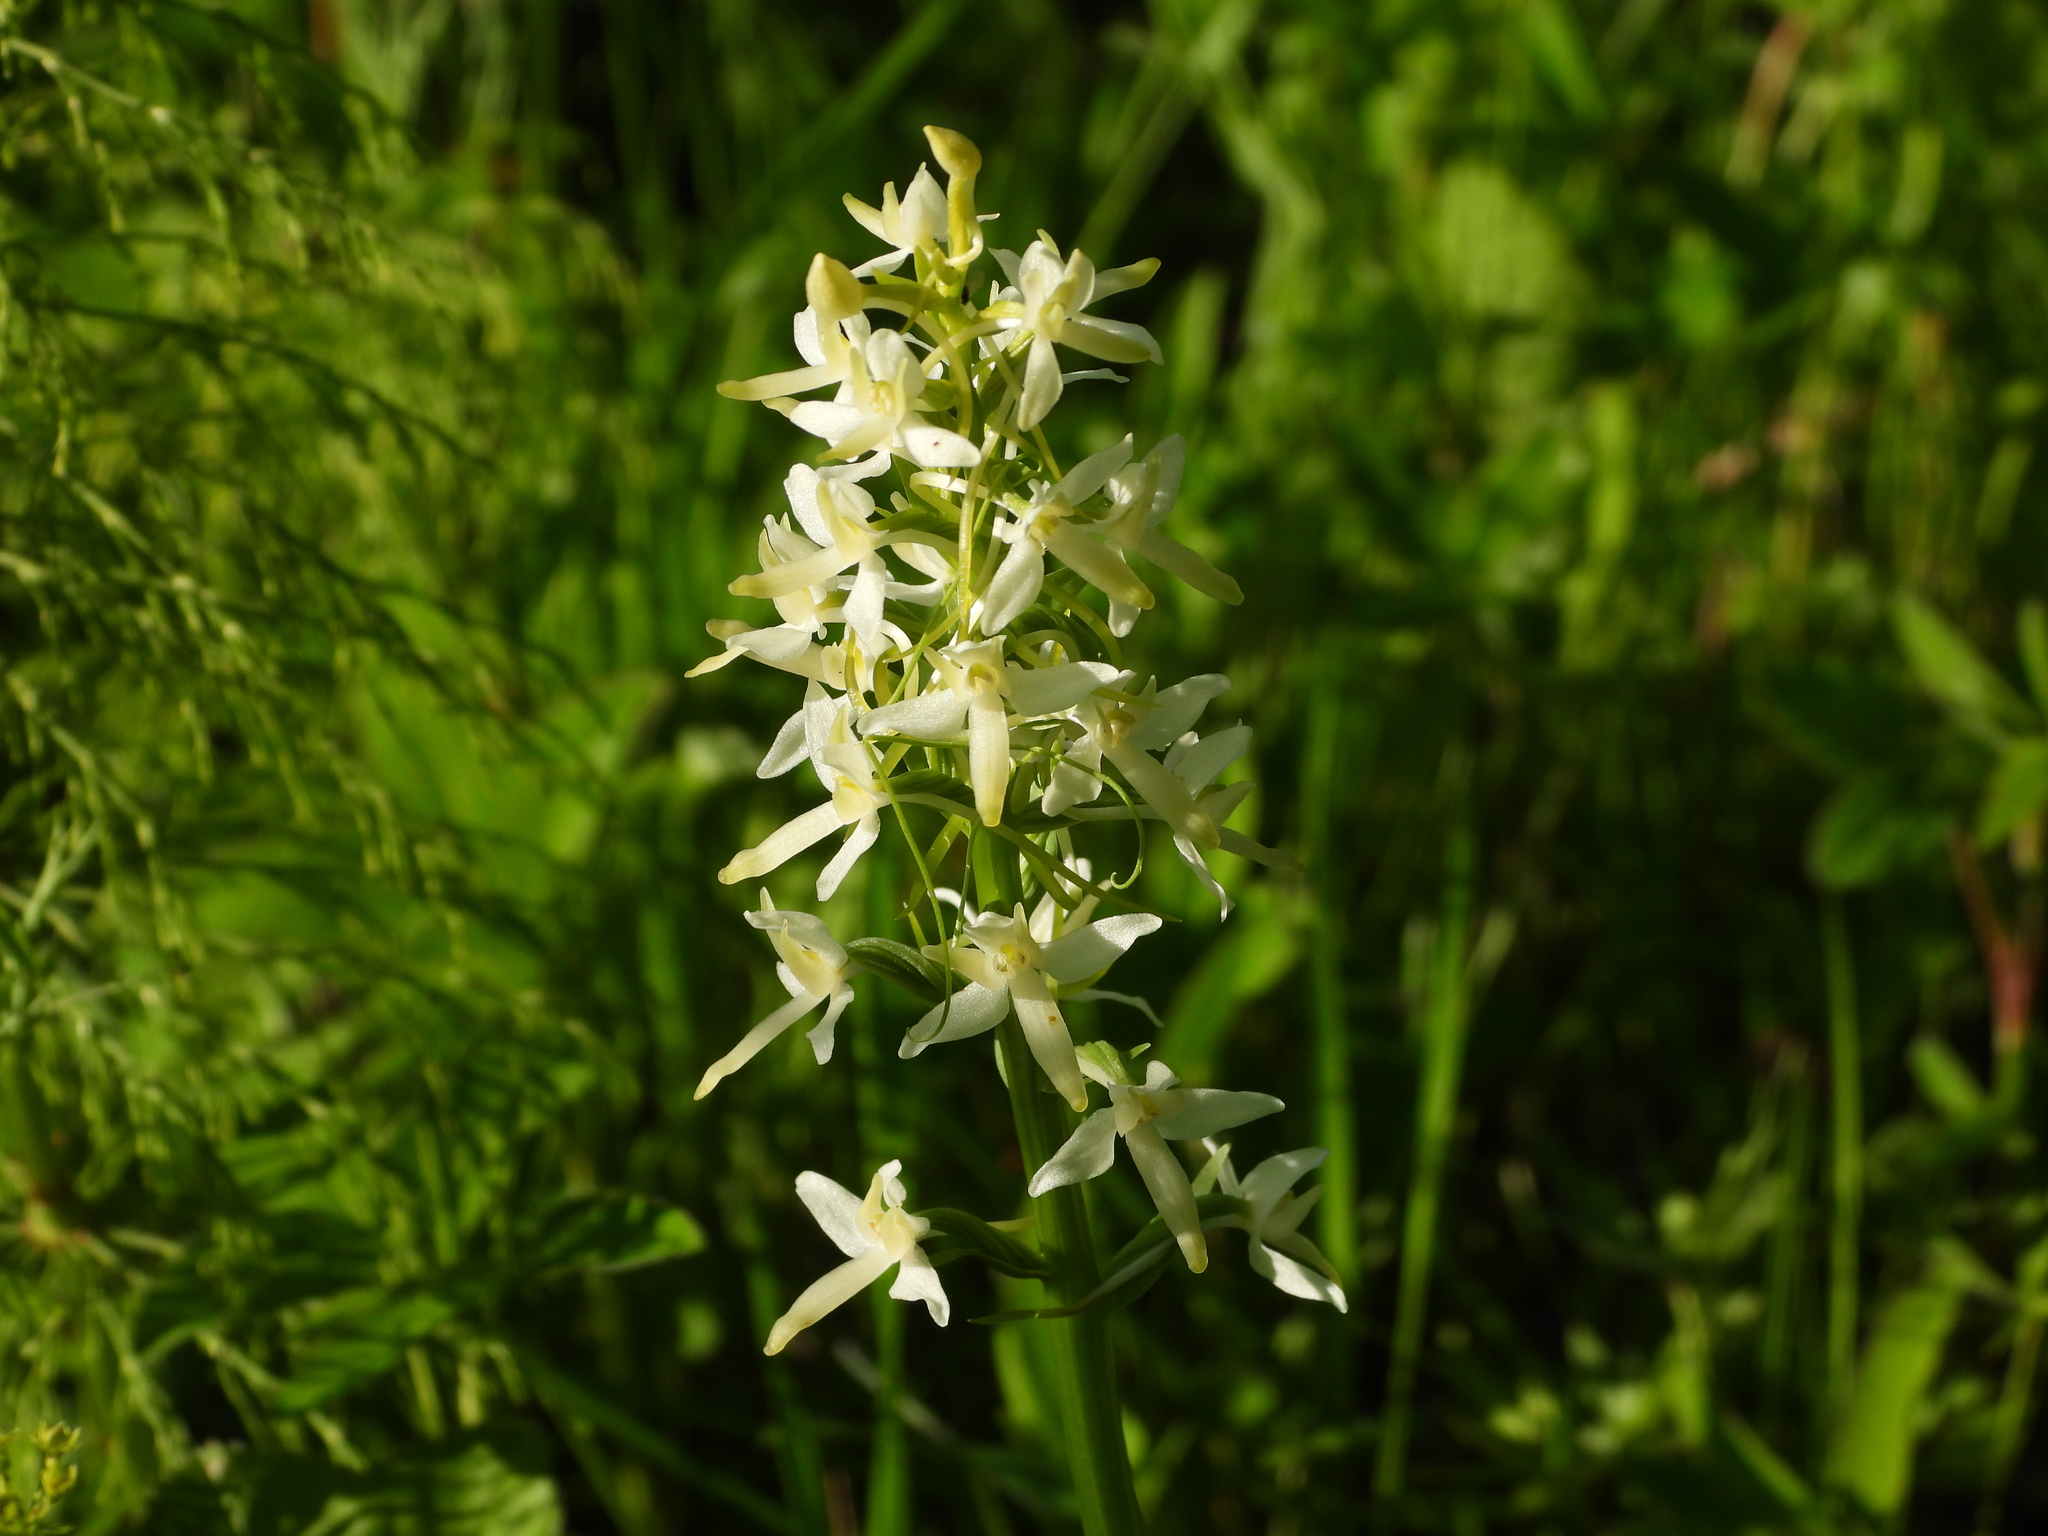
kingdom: Plantae
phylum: Tracheophyta
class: Liliopsida
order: Asparagales
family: Orchidaceae
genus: Platanthera
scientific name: Platanthera bifolia
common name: Lesser butterfly-orchid
